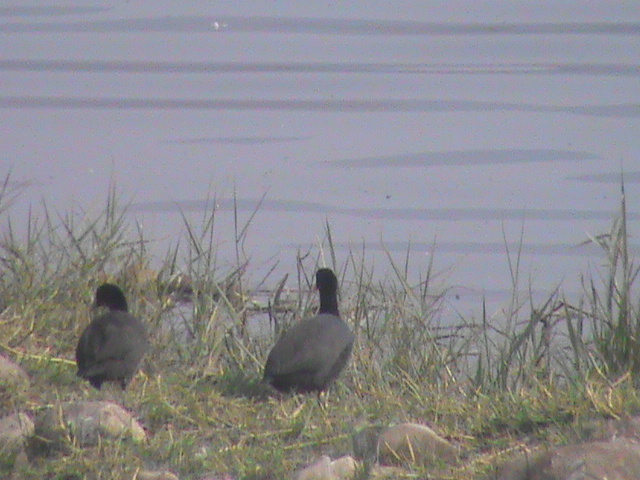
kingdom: Animalia
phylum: Chordata
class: Aves
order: Gruiformes
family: Rallidae
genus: Fulica
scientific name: Fulica atra
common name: Eurasian coot
